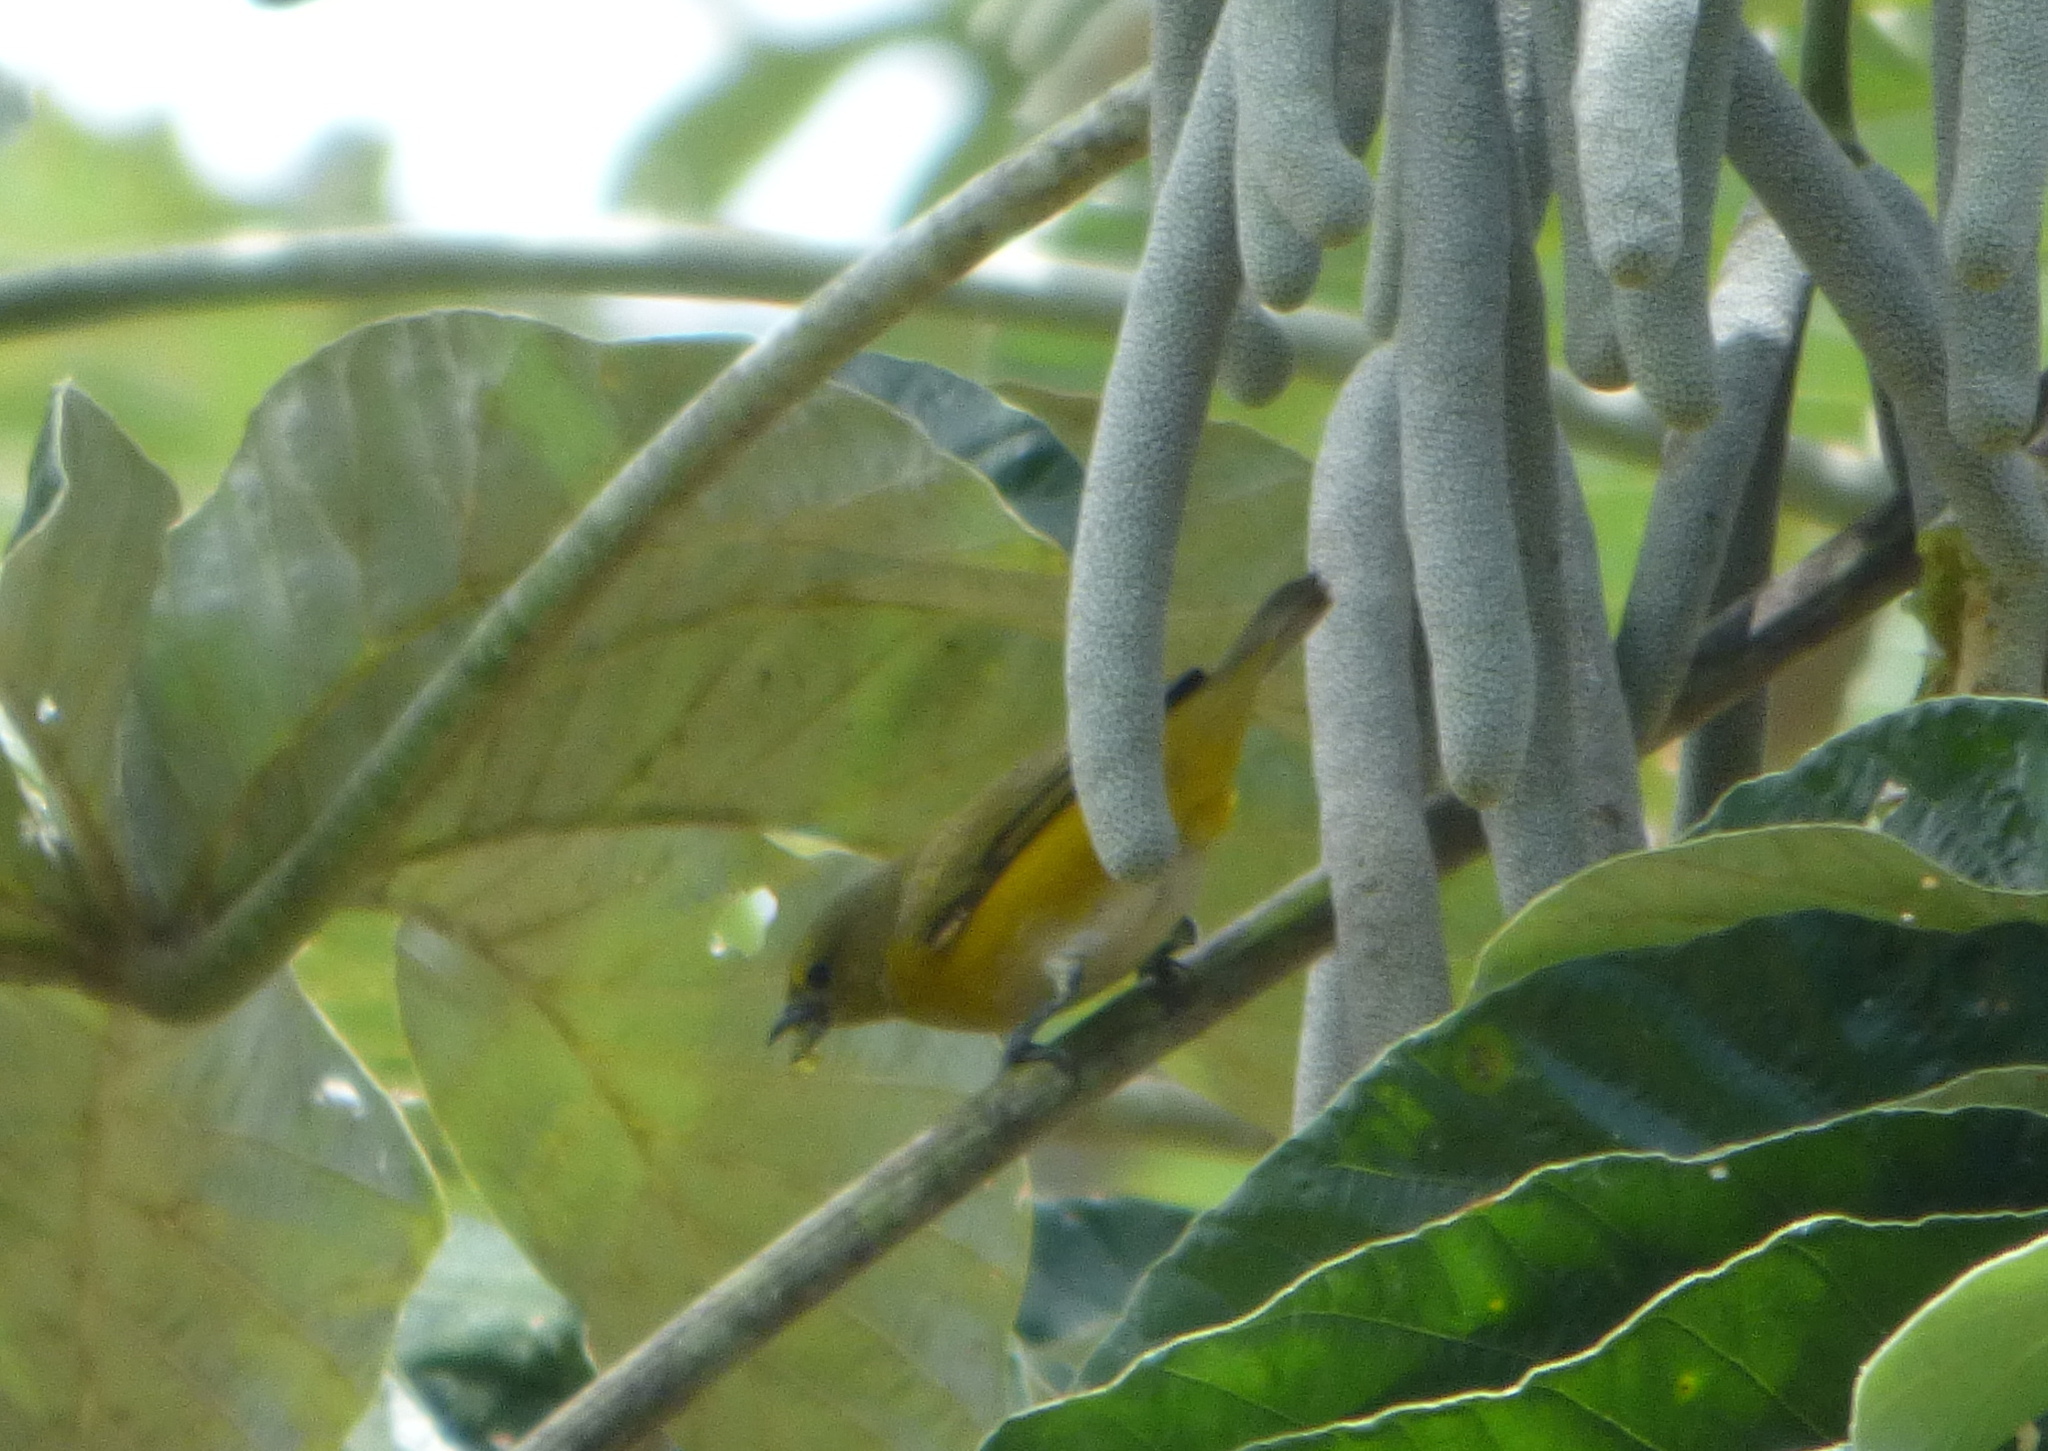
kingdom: Animalia
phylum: Chordata
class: Aves
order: Passeriformes
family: Fringillidae
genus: Euphonia
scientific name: Euphonia chlorotica
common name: Purple-throated euphonia
